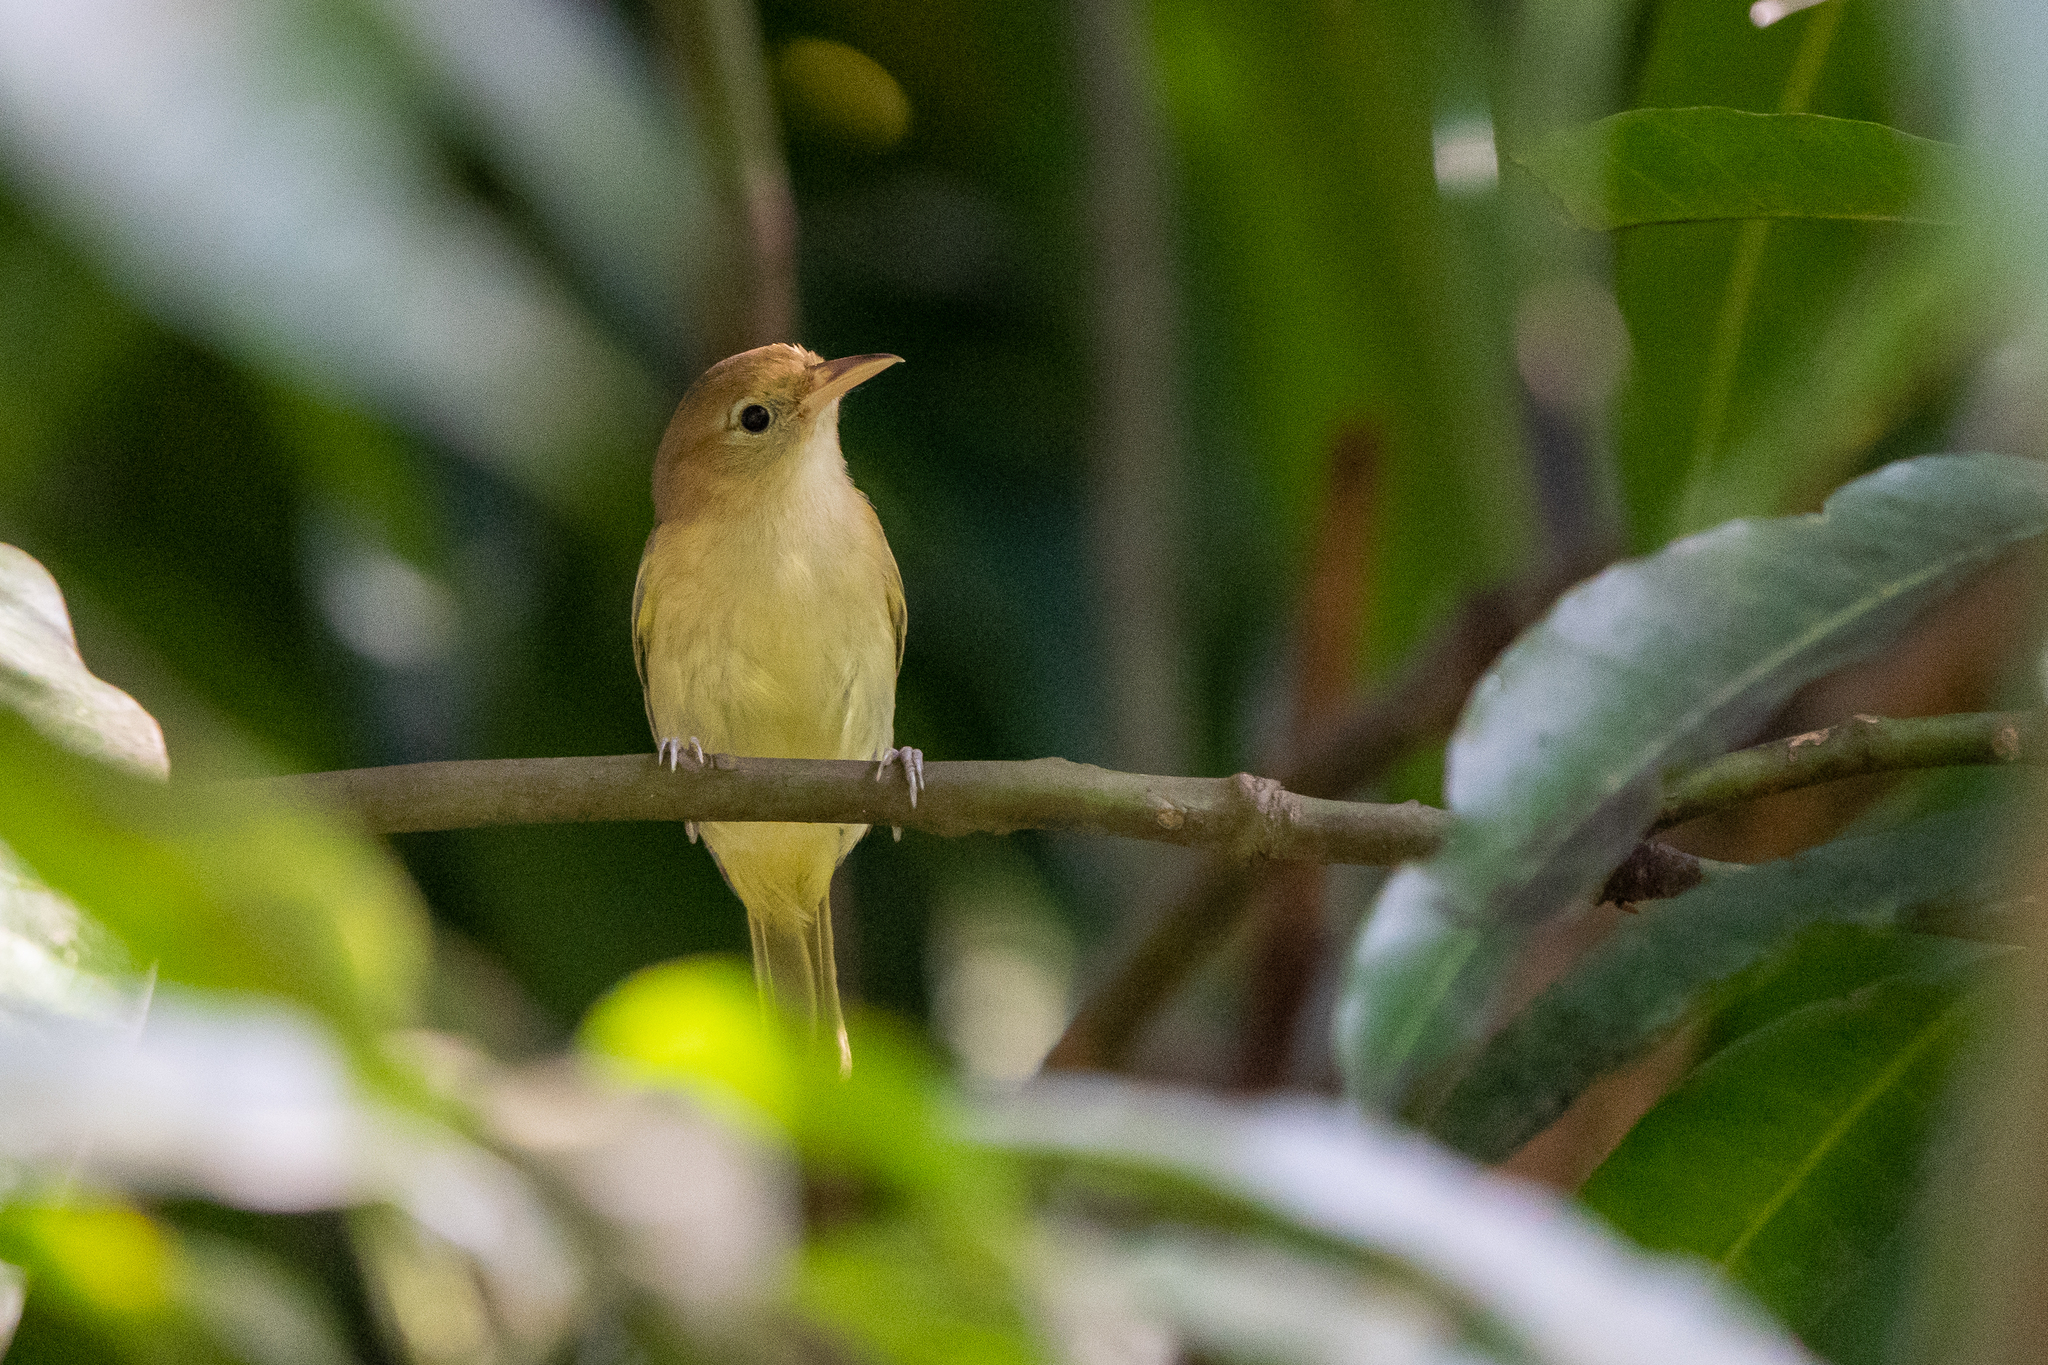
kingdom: Animalia
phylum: Chordata
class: Aves
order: Passeriformes
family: Vireonidae
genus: Hylophilus
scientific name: Hylophilus aurantiifrons
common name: Golden-fronted greenlet
